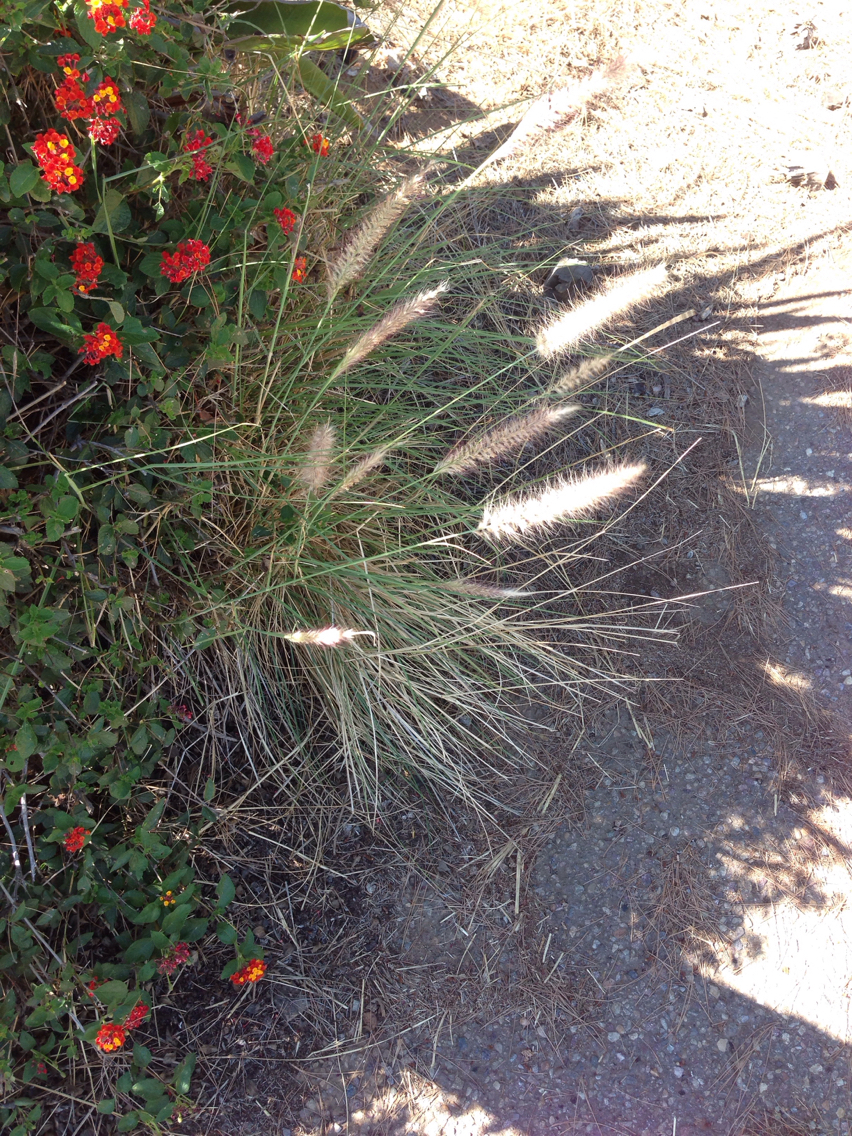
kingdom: Plantae
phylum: Tracheophyta
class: Liliopsida
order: Poales
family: Poaceae
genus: Cenchrus
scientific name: Cenchrus setaceus
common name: Crimson fountaingrass
